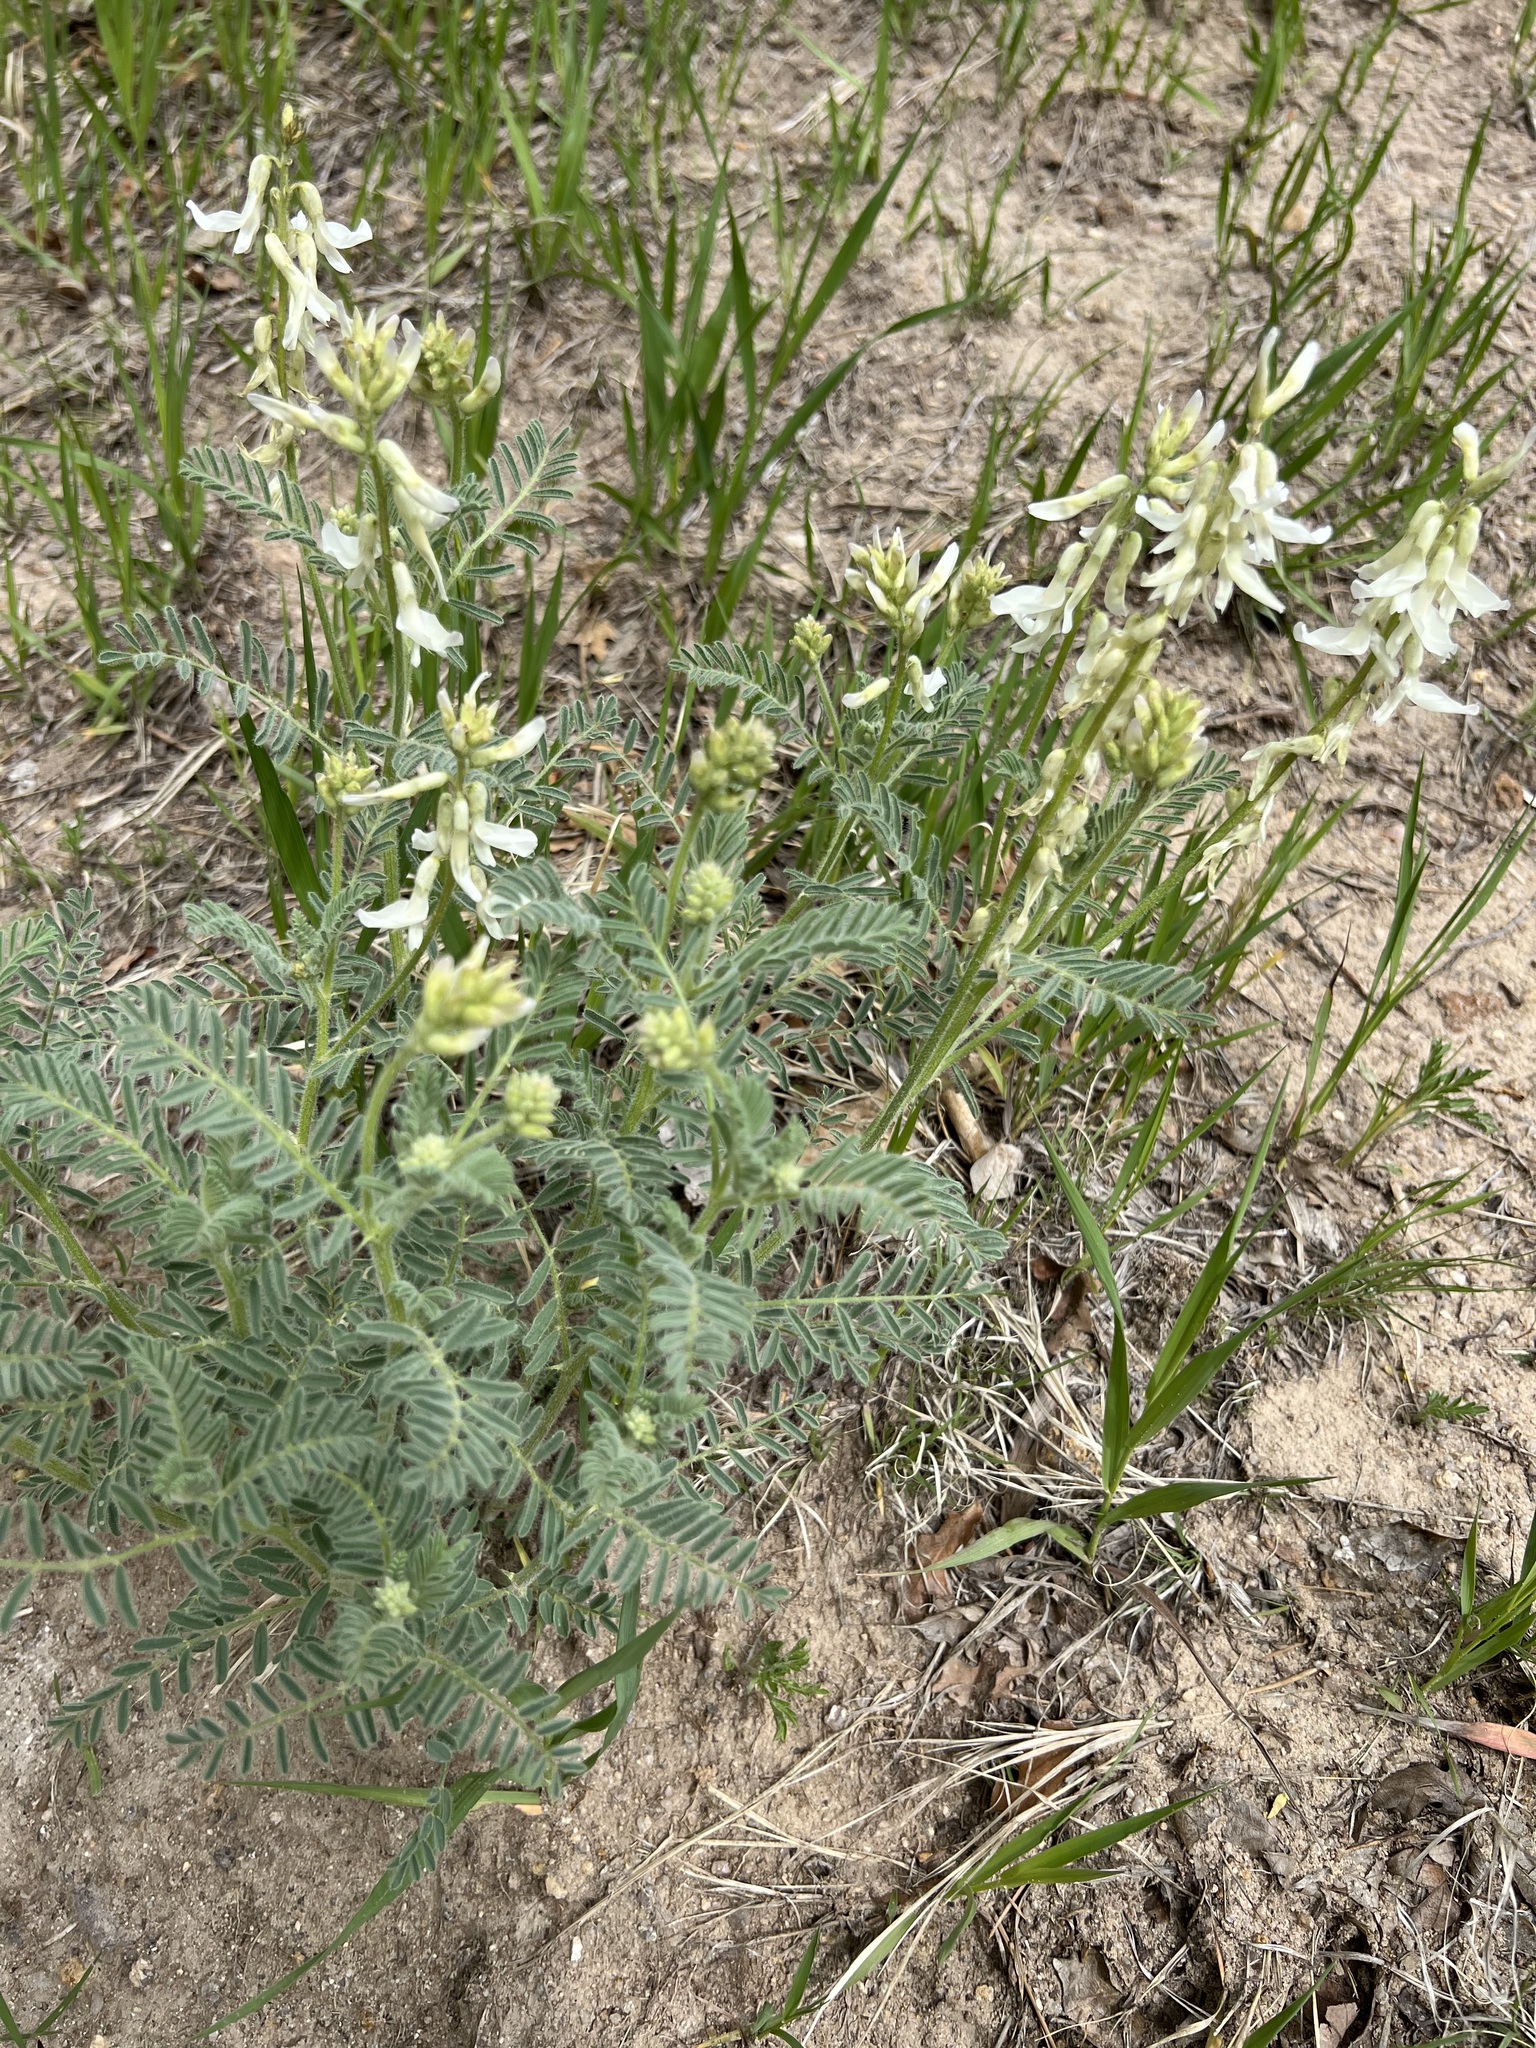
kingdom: Plantae
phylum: Tracheophyta
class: Magnoliopsida
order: Fabales
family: Fabaceae
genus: Astragalus
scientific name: Astragalus drummondii
